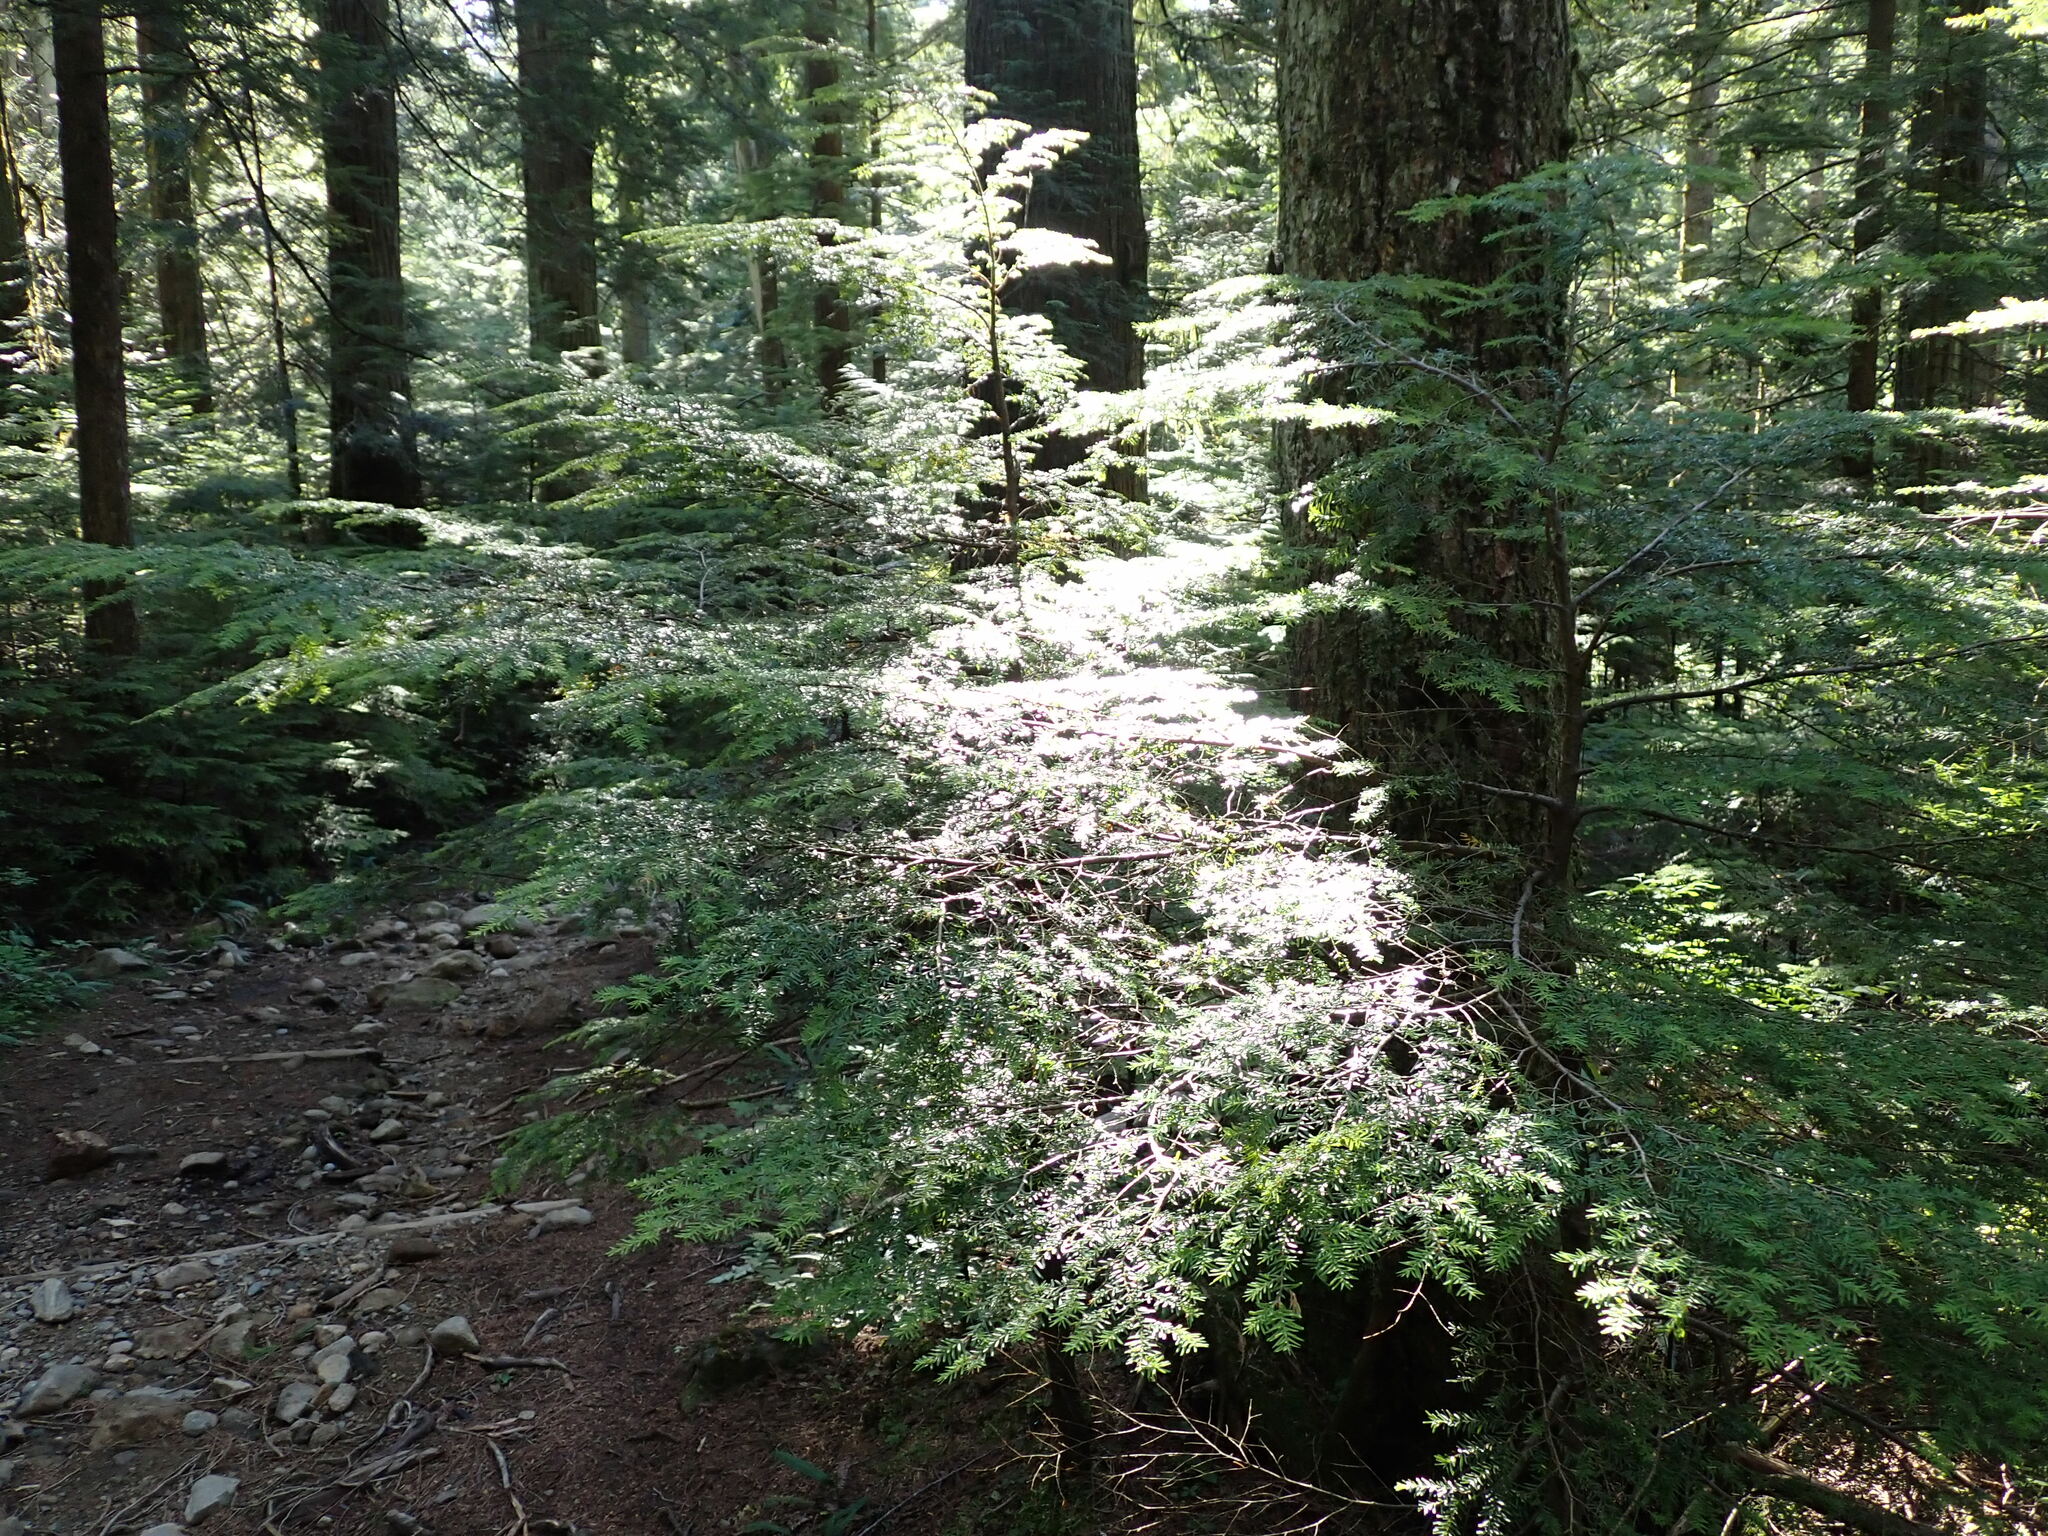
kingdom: Plantae
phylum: Tracheophyta
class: Pinopsida
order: Pinales
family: Pinaceae
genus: Tsuga
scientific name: Tsuga heterophylla
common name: Western hemlock
